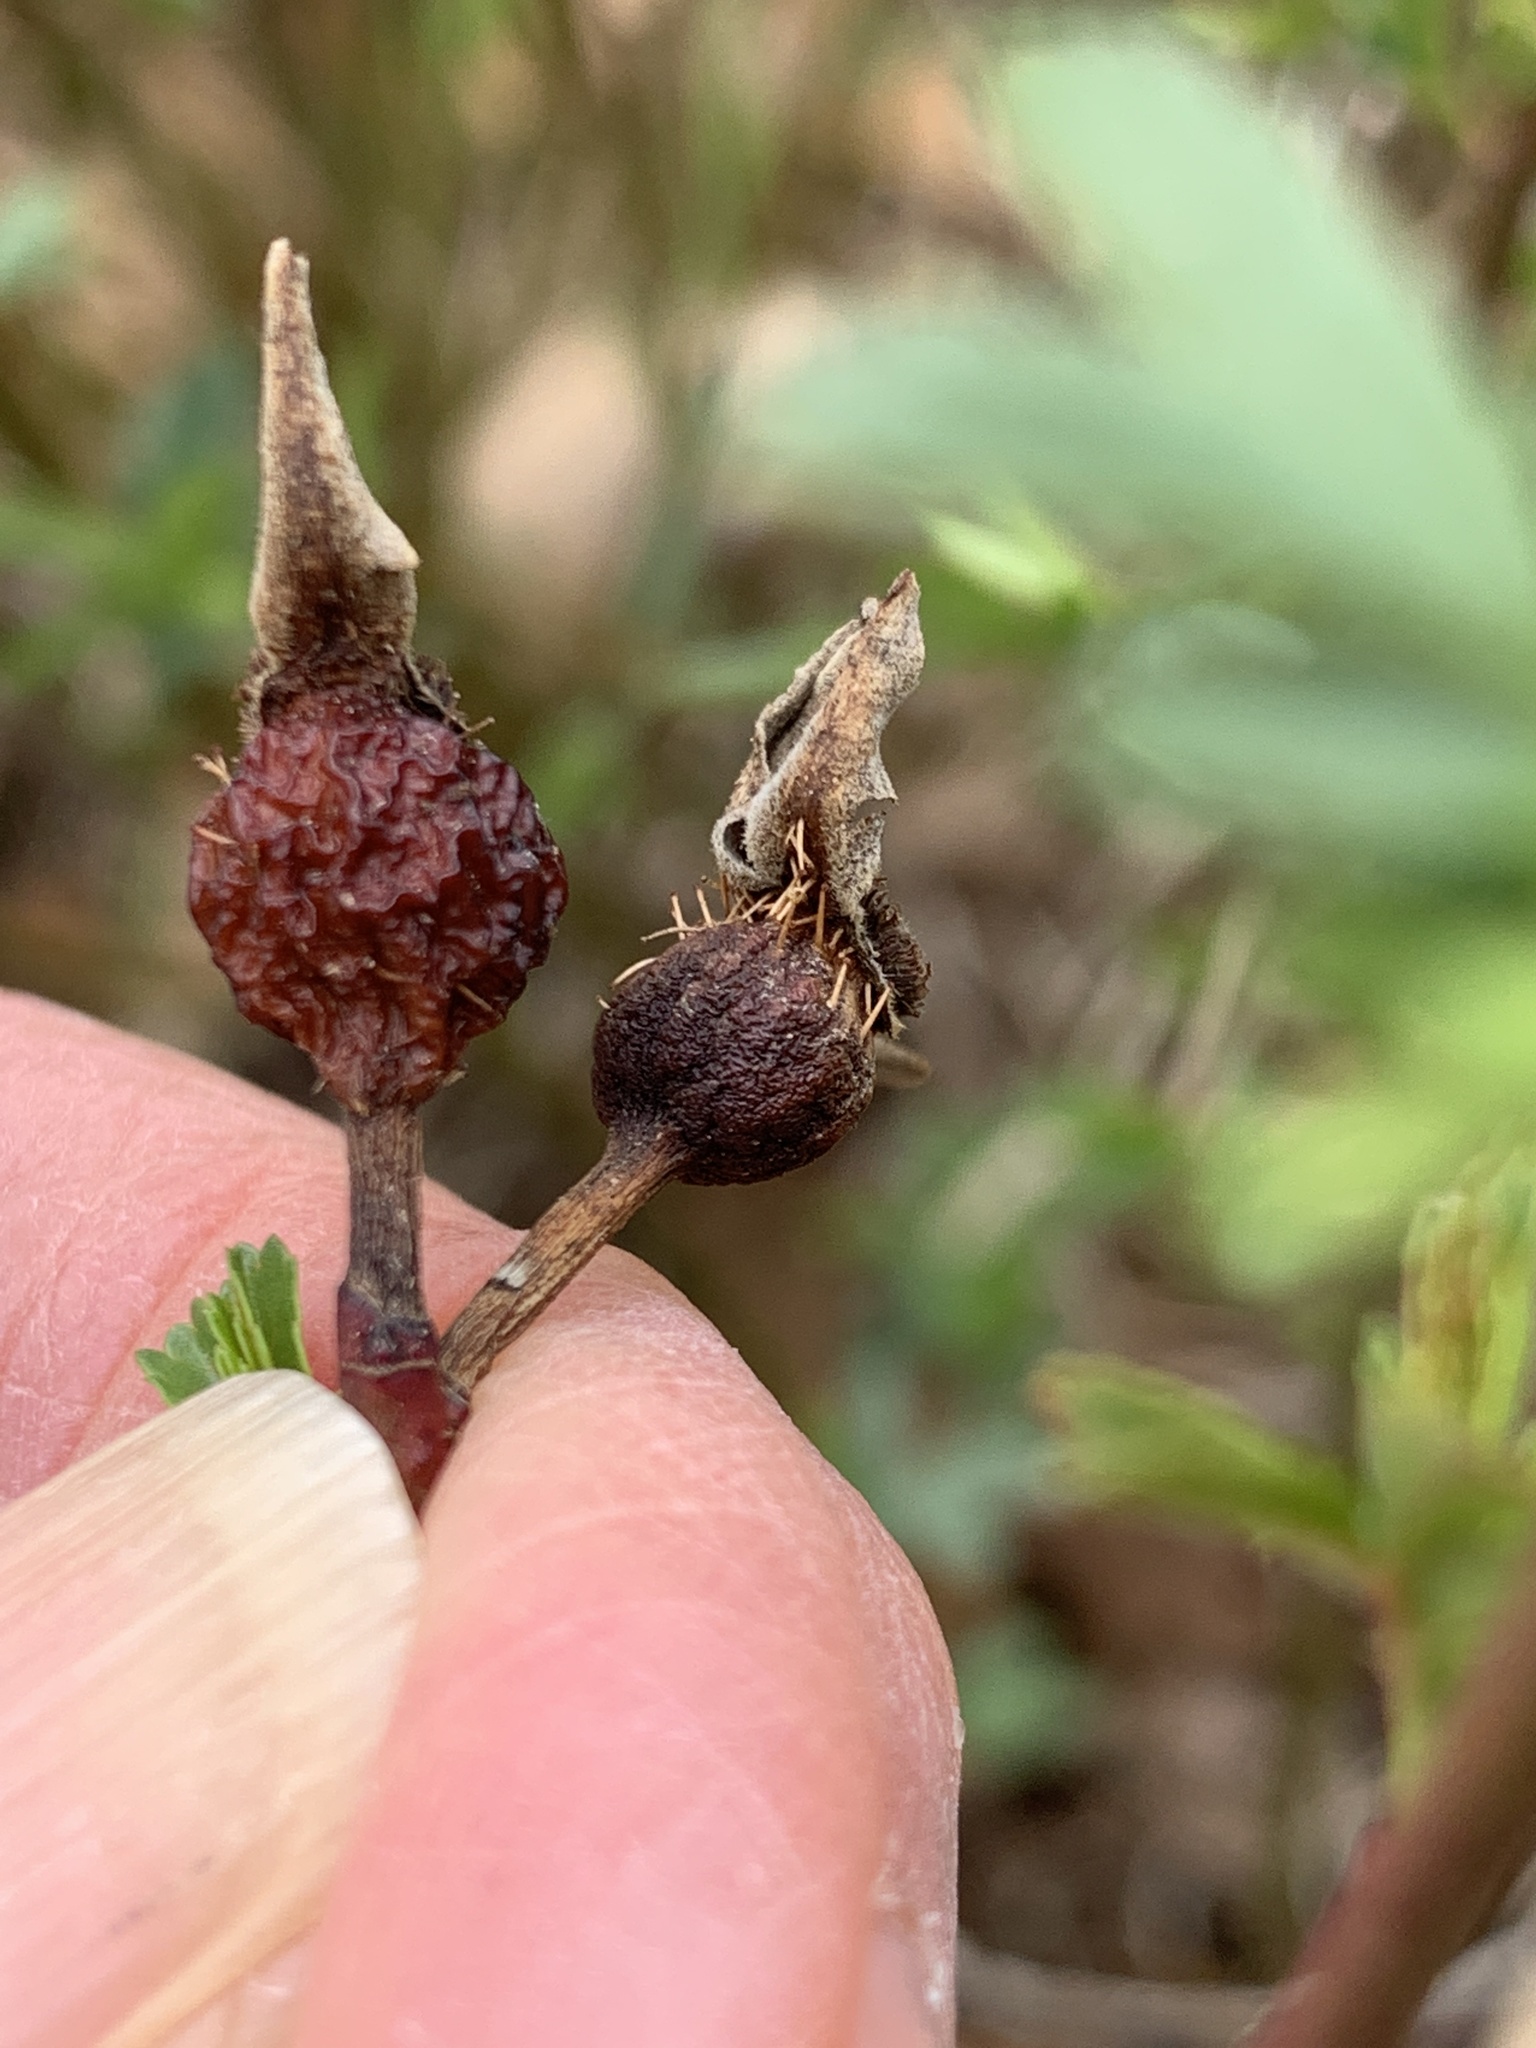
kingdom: Plantae
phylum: Tracheophyta
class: Magnoliopsida
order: Rosales
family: Rosaceae
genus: Rosa
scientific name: Rosa foliolosa
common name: White prairie rose
